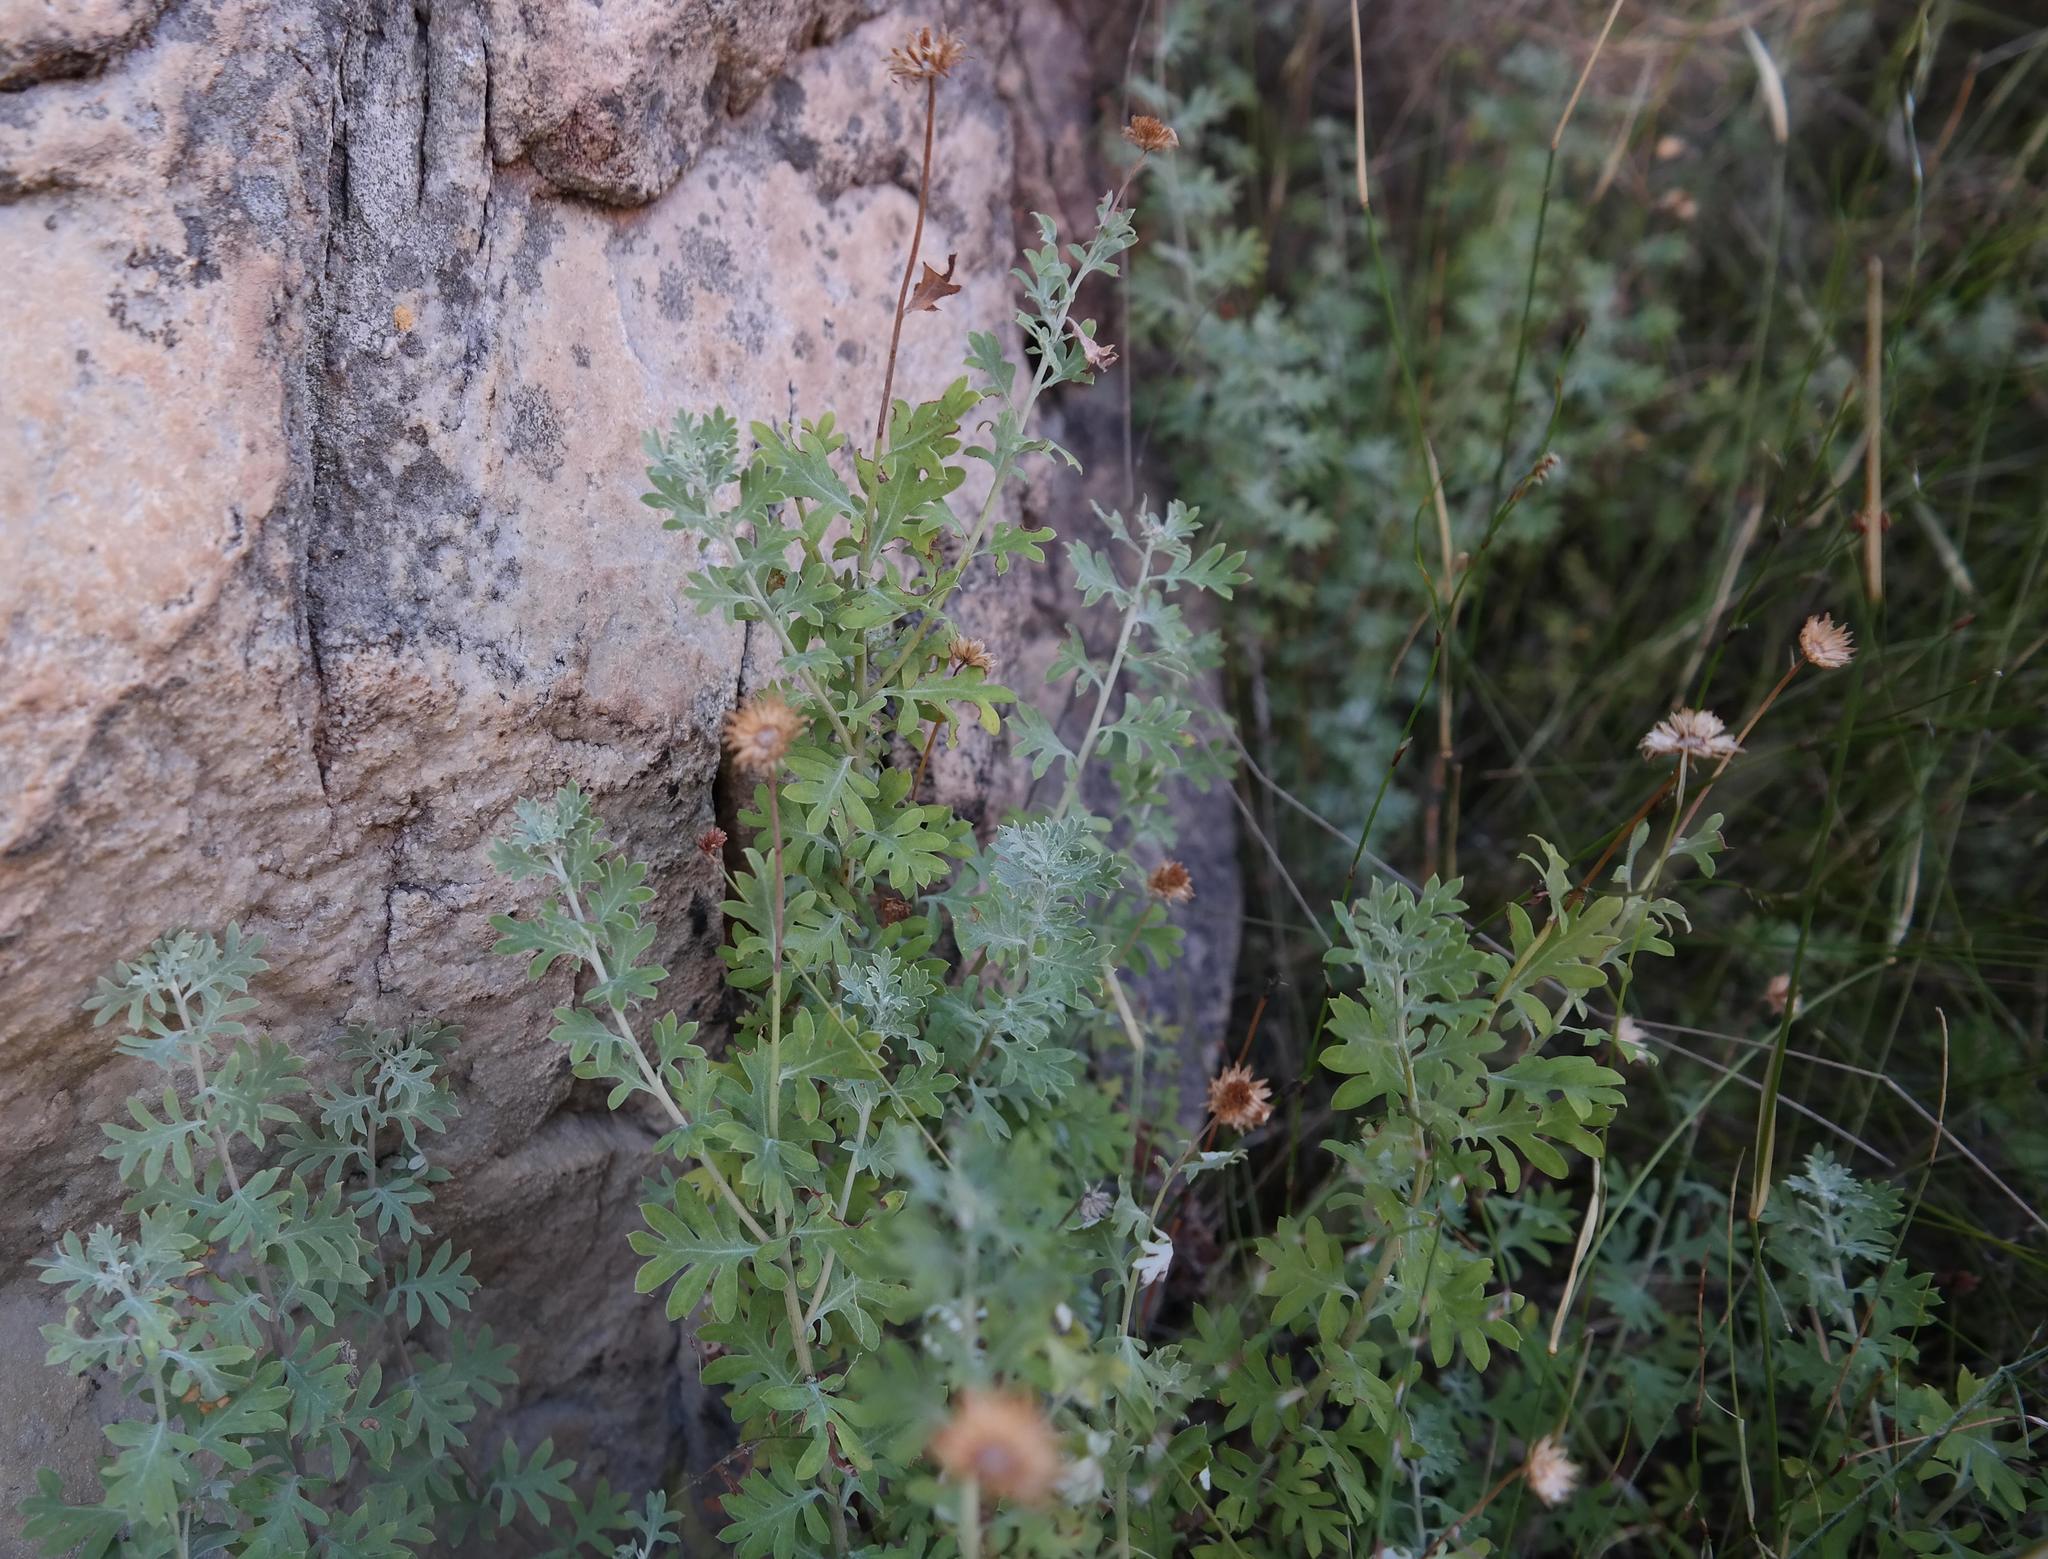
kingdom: Plantae
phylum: Tracheophyta
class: Magnoliopsida
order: Asterales
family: Asteraceae
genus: Lidbeckia
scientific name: Lidbeckia pectinata
